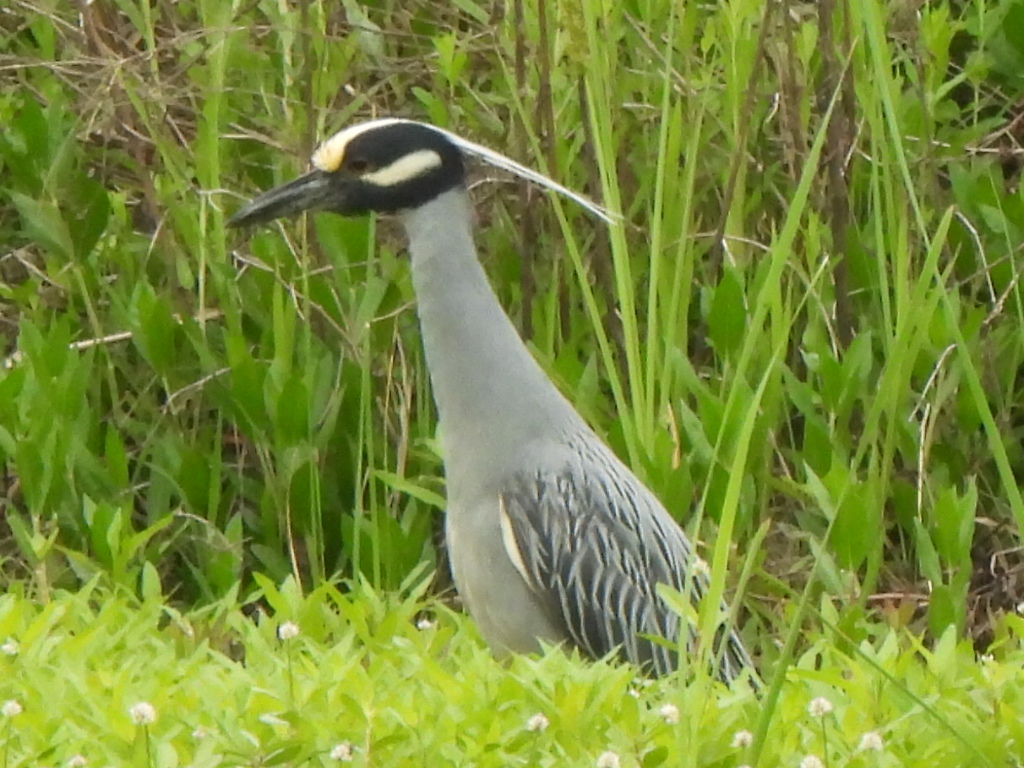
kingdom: Animalia
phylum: Chordata
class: Aves
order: Pelecaniformes
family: Ardeidae
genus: Nyctanassa
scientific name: Nyctanassa violacea
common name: Yellow-crowned night heron
